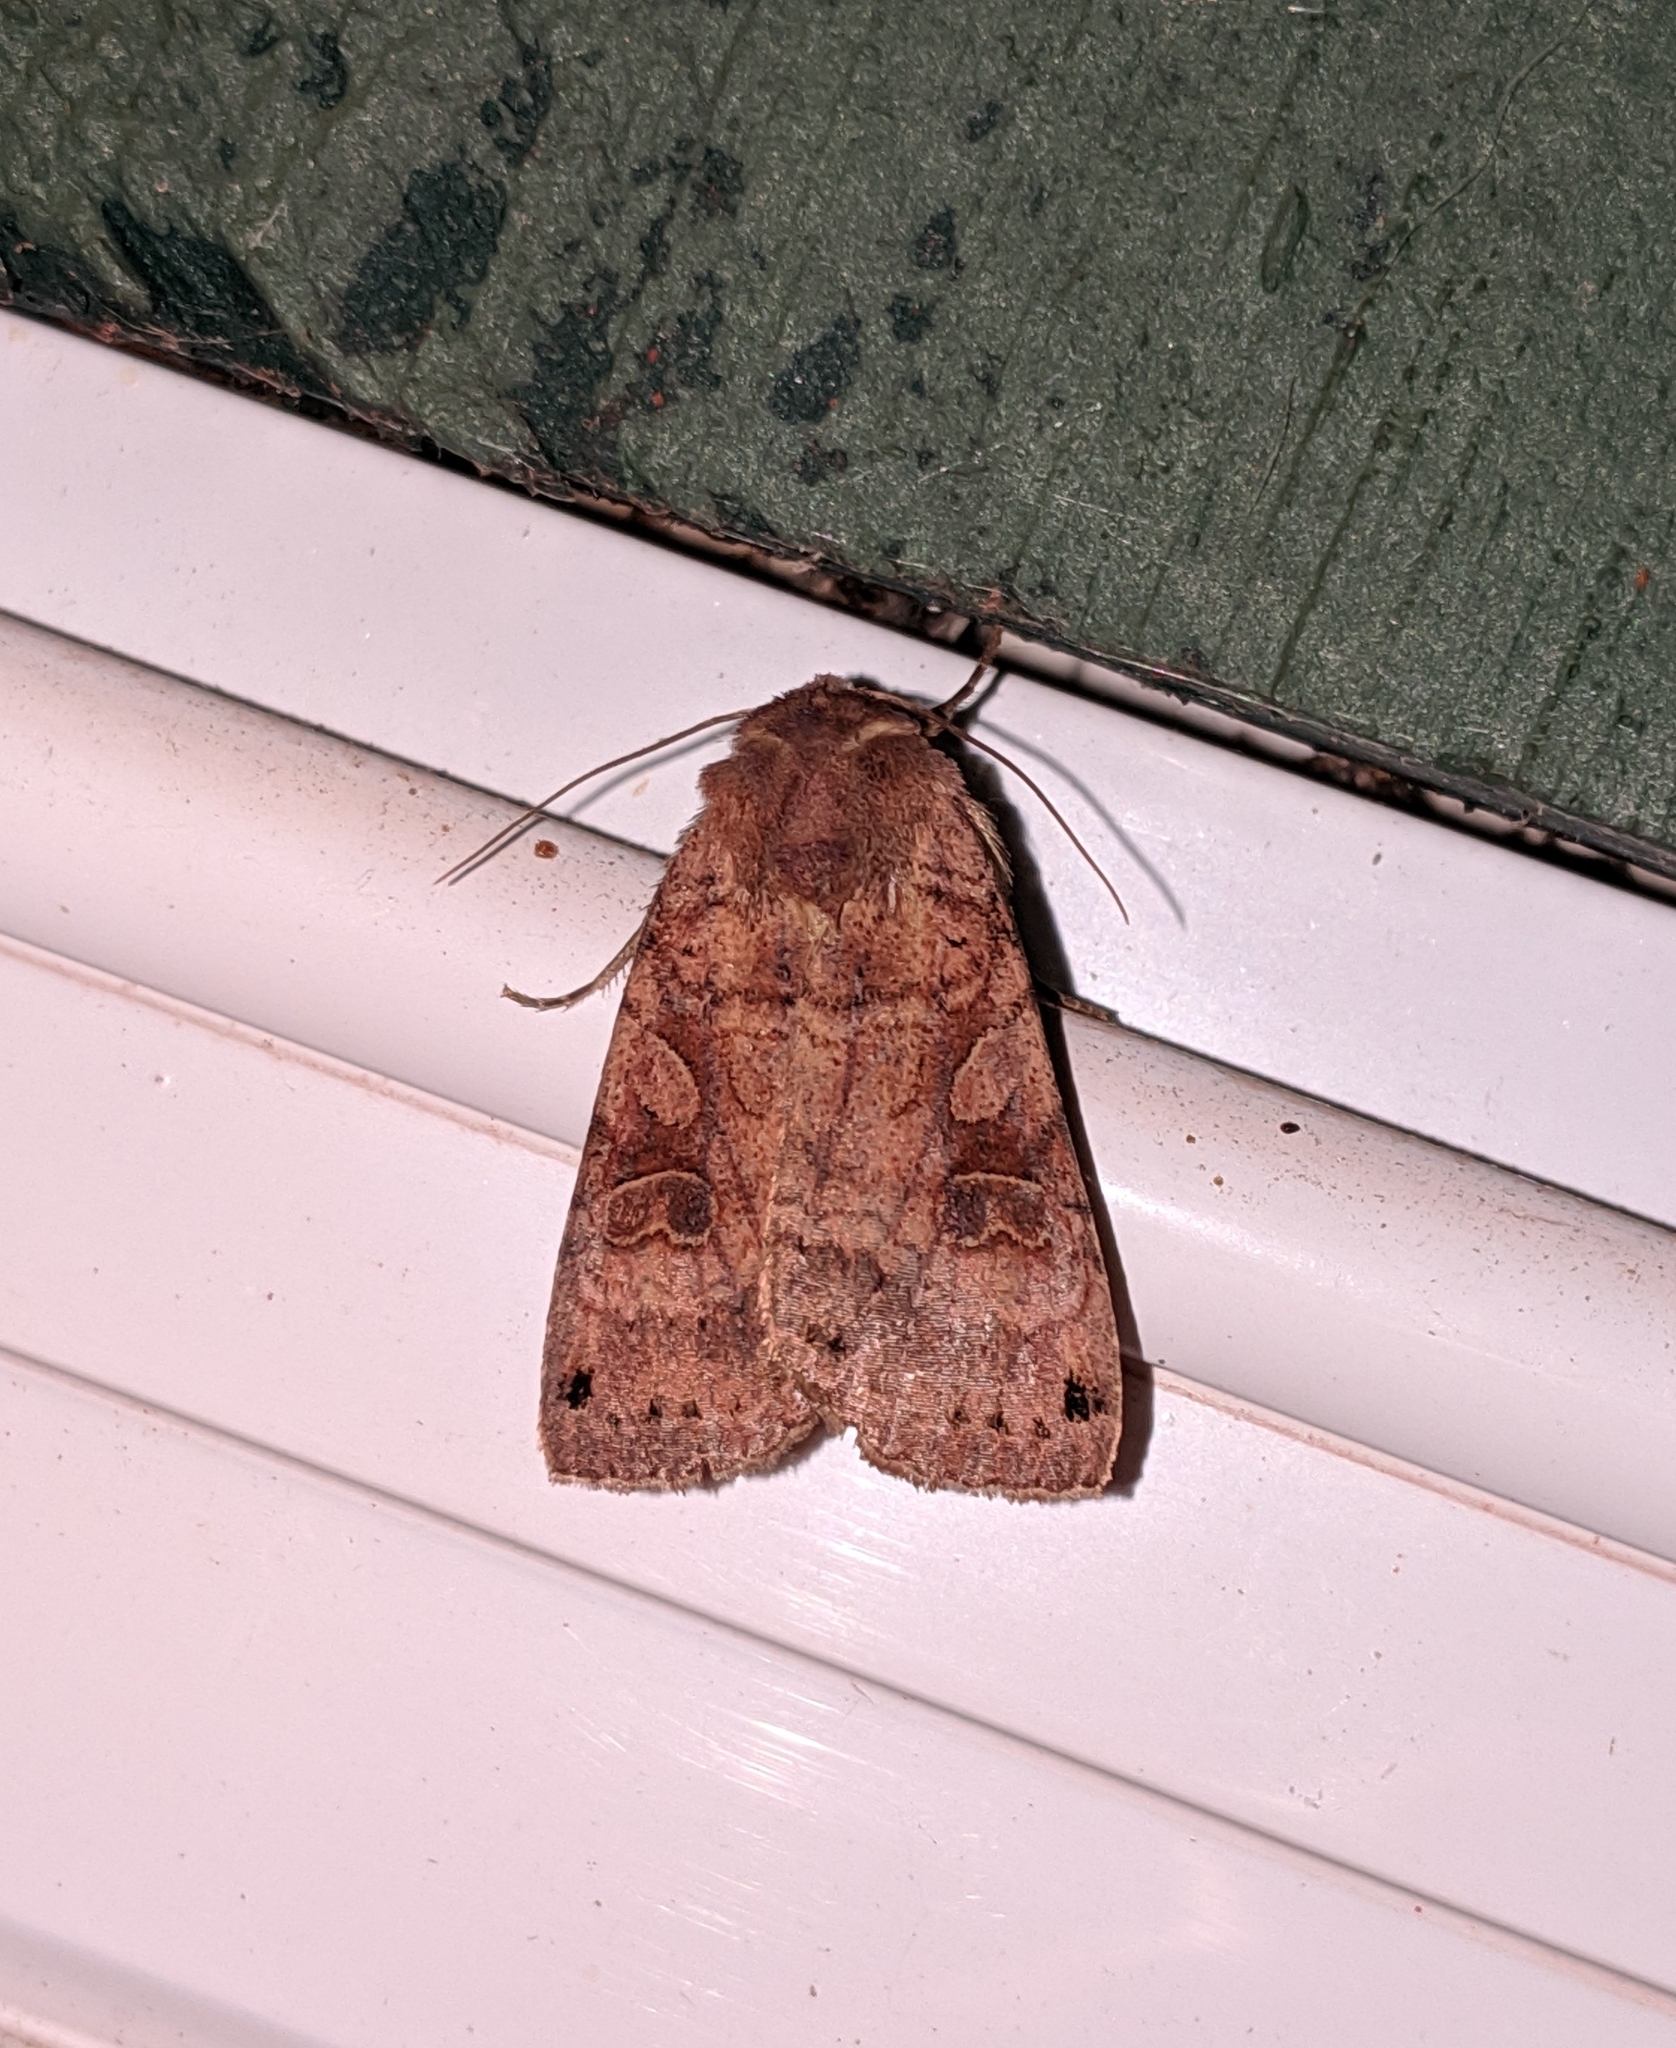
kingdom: Animalia
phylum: Arthropoda
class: Insecta
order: Lepidoptera
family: Noctuidae
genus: Xestia
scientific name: Xestia smithii
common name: Smith's dart
